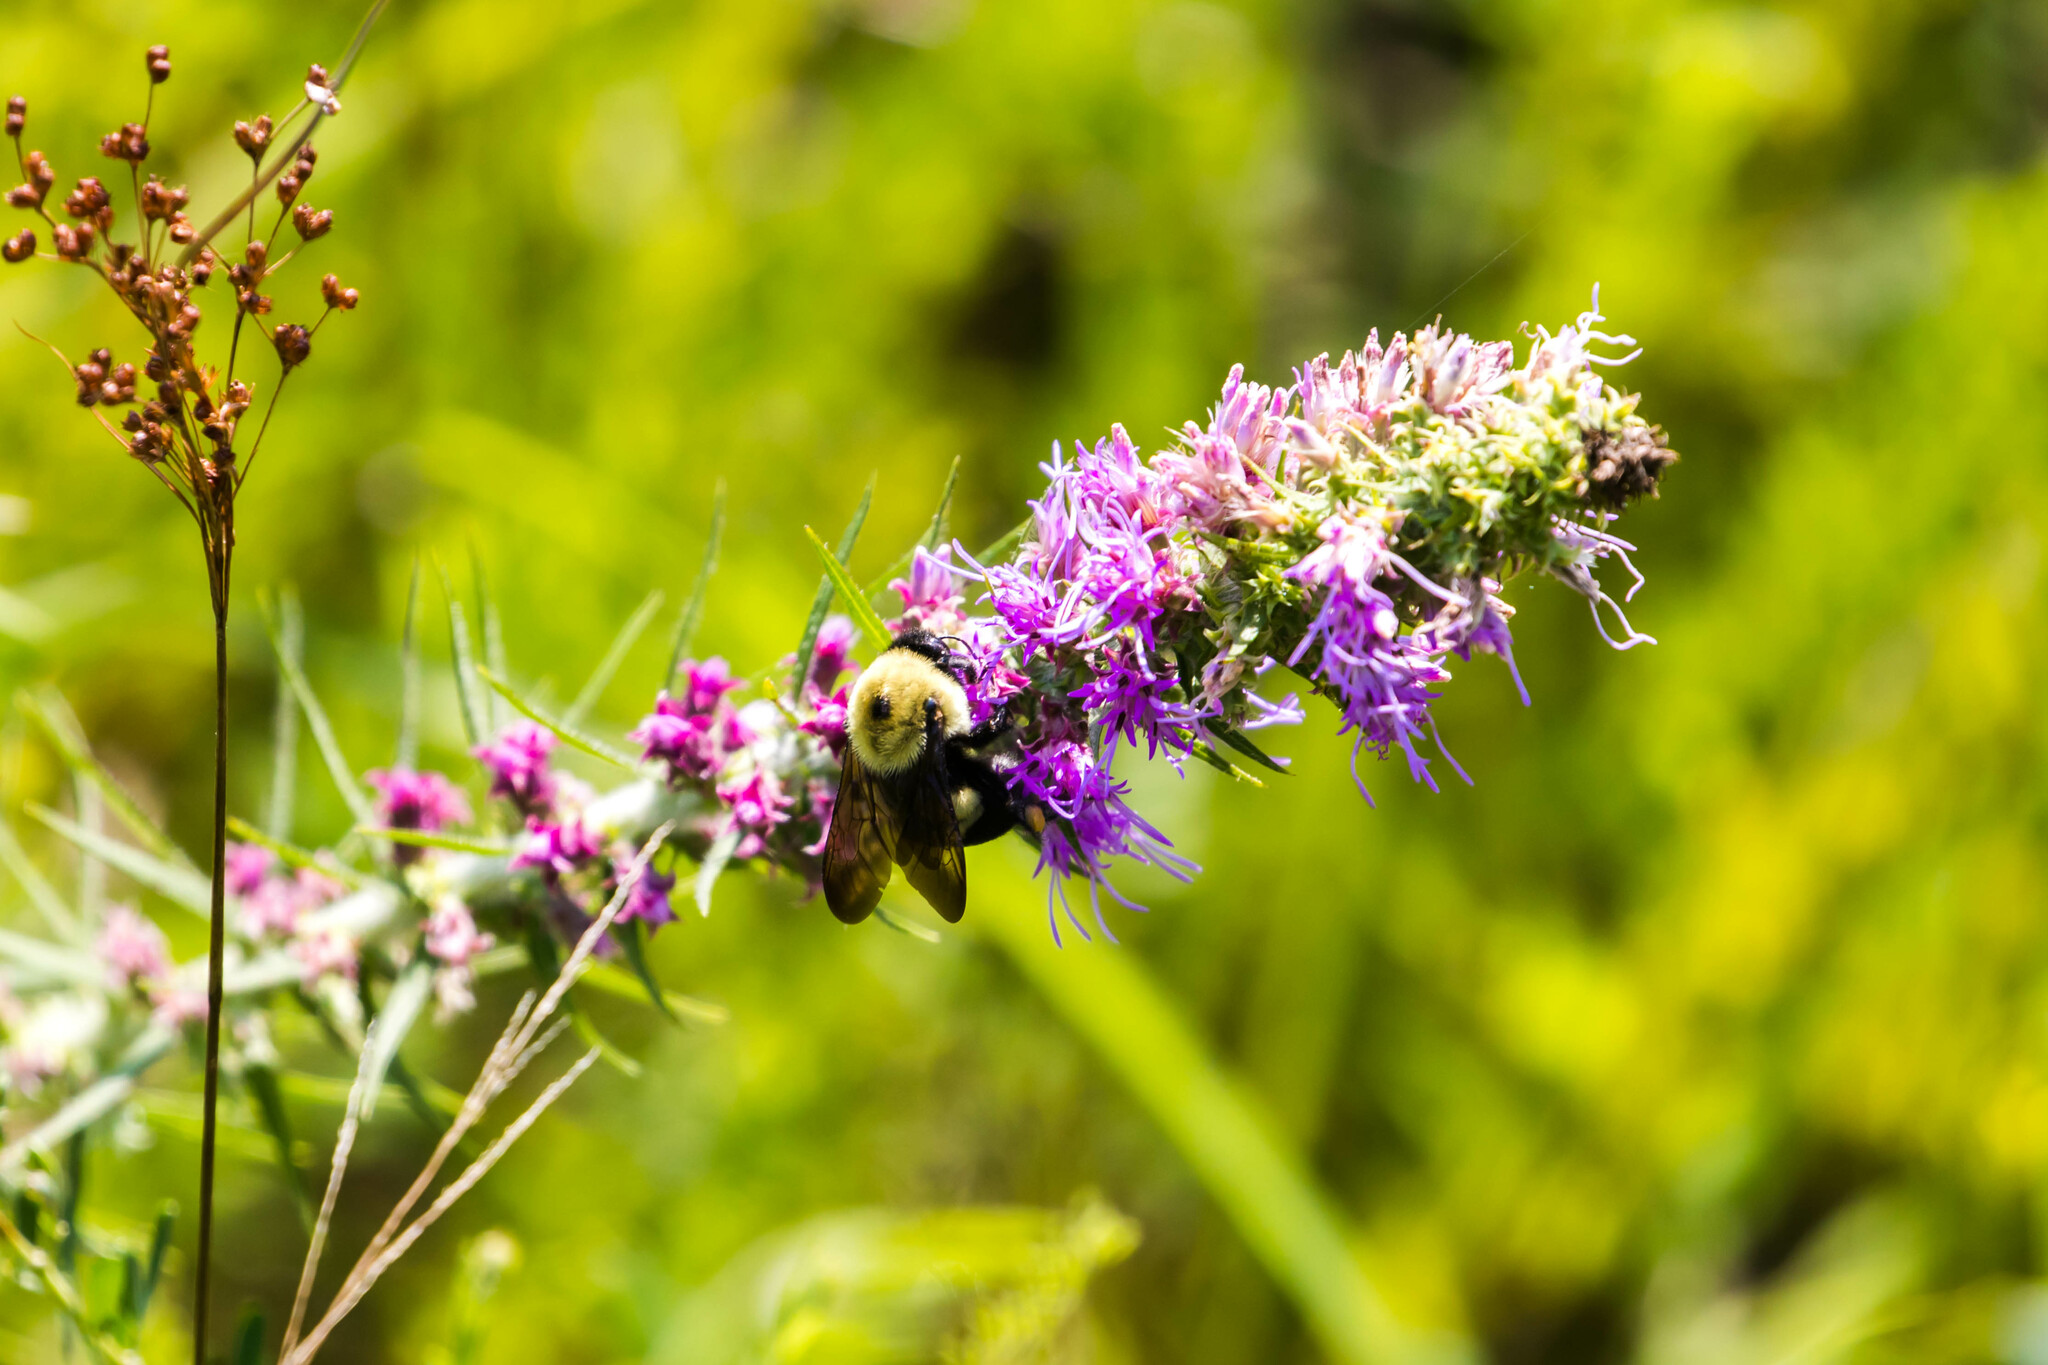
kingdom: Animalia
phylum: Arthropoda
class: Insecta
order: Hymenoptera
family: Apidae
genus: Bombus
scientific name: Bombus griseocollis
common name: Brown-belted bumble bee
